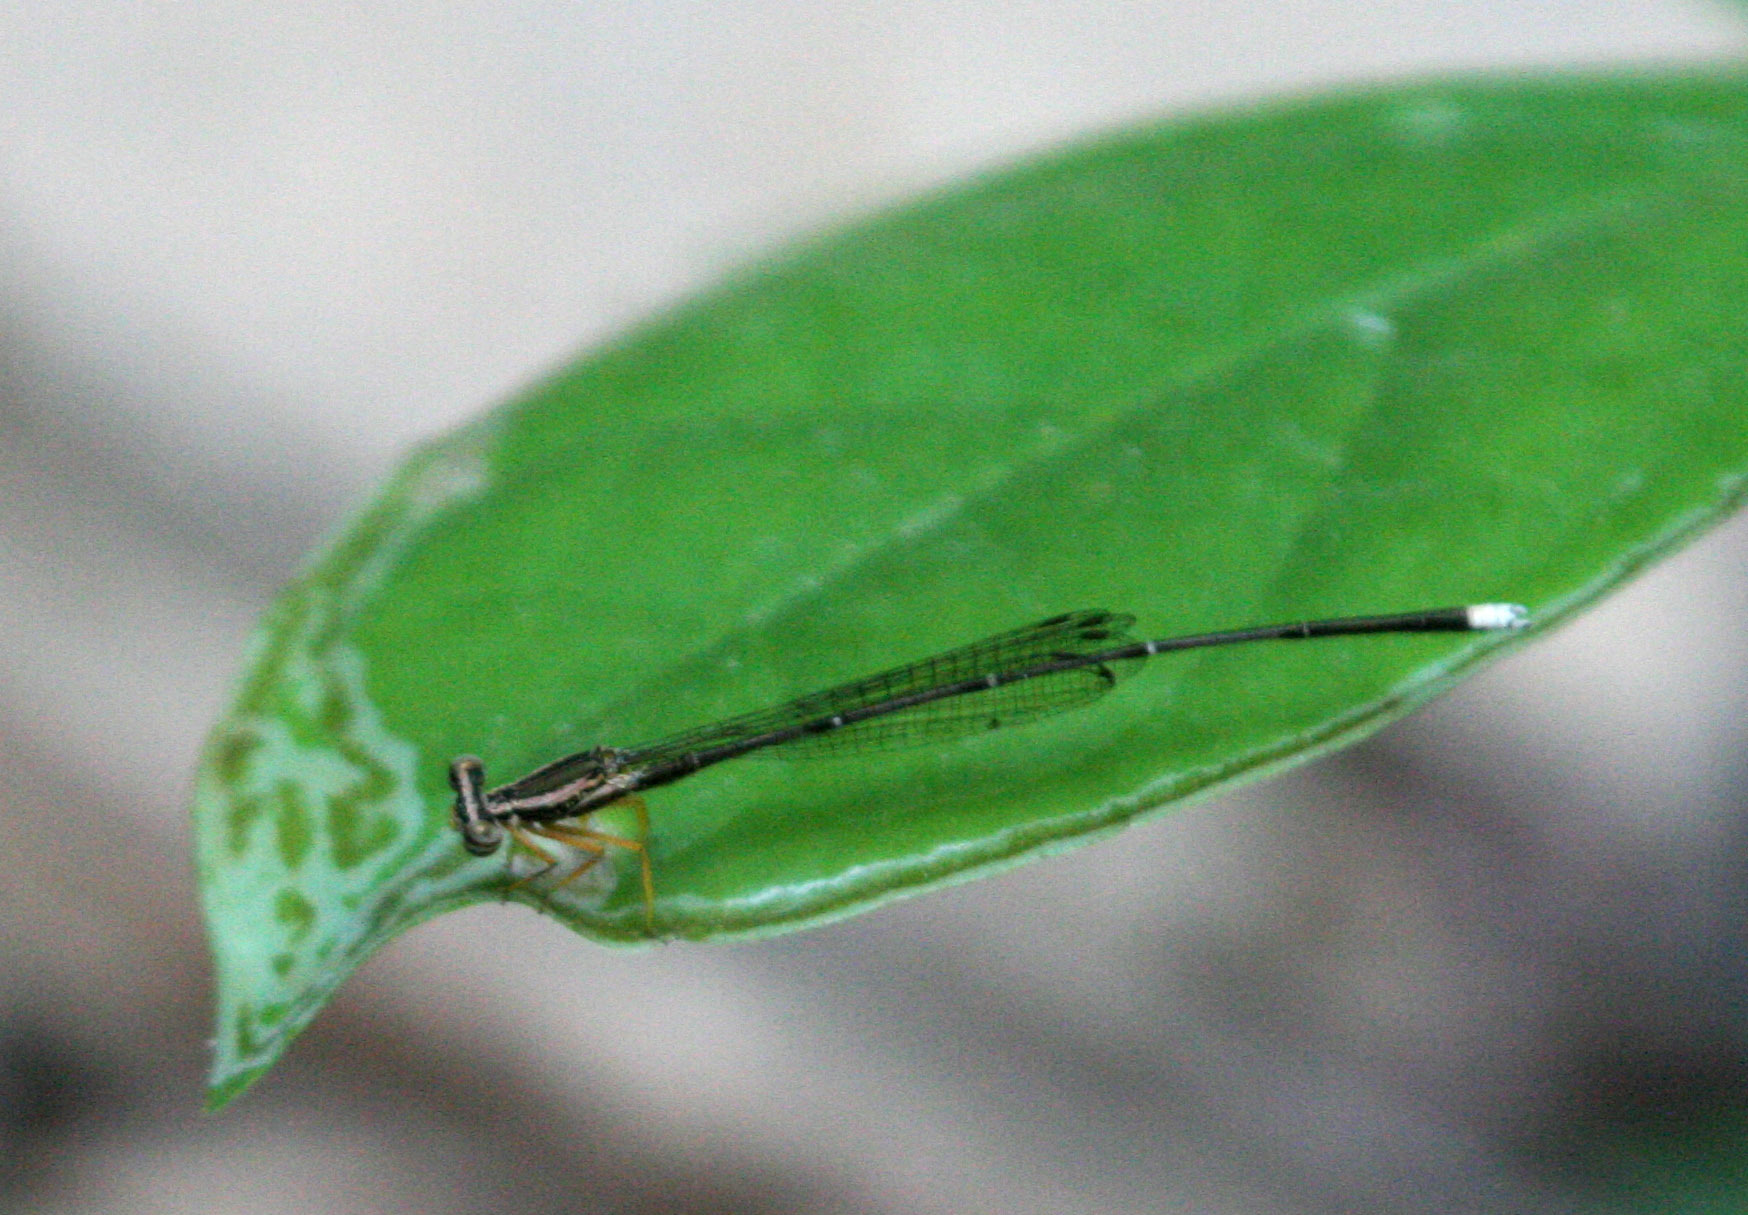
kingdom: Animalia
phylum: Arthropoda
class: Insecta
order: Odonata
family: Platycnemididae
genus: Copera
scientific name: Copera marginipes
